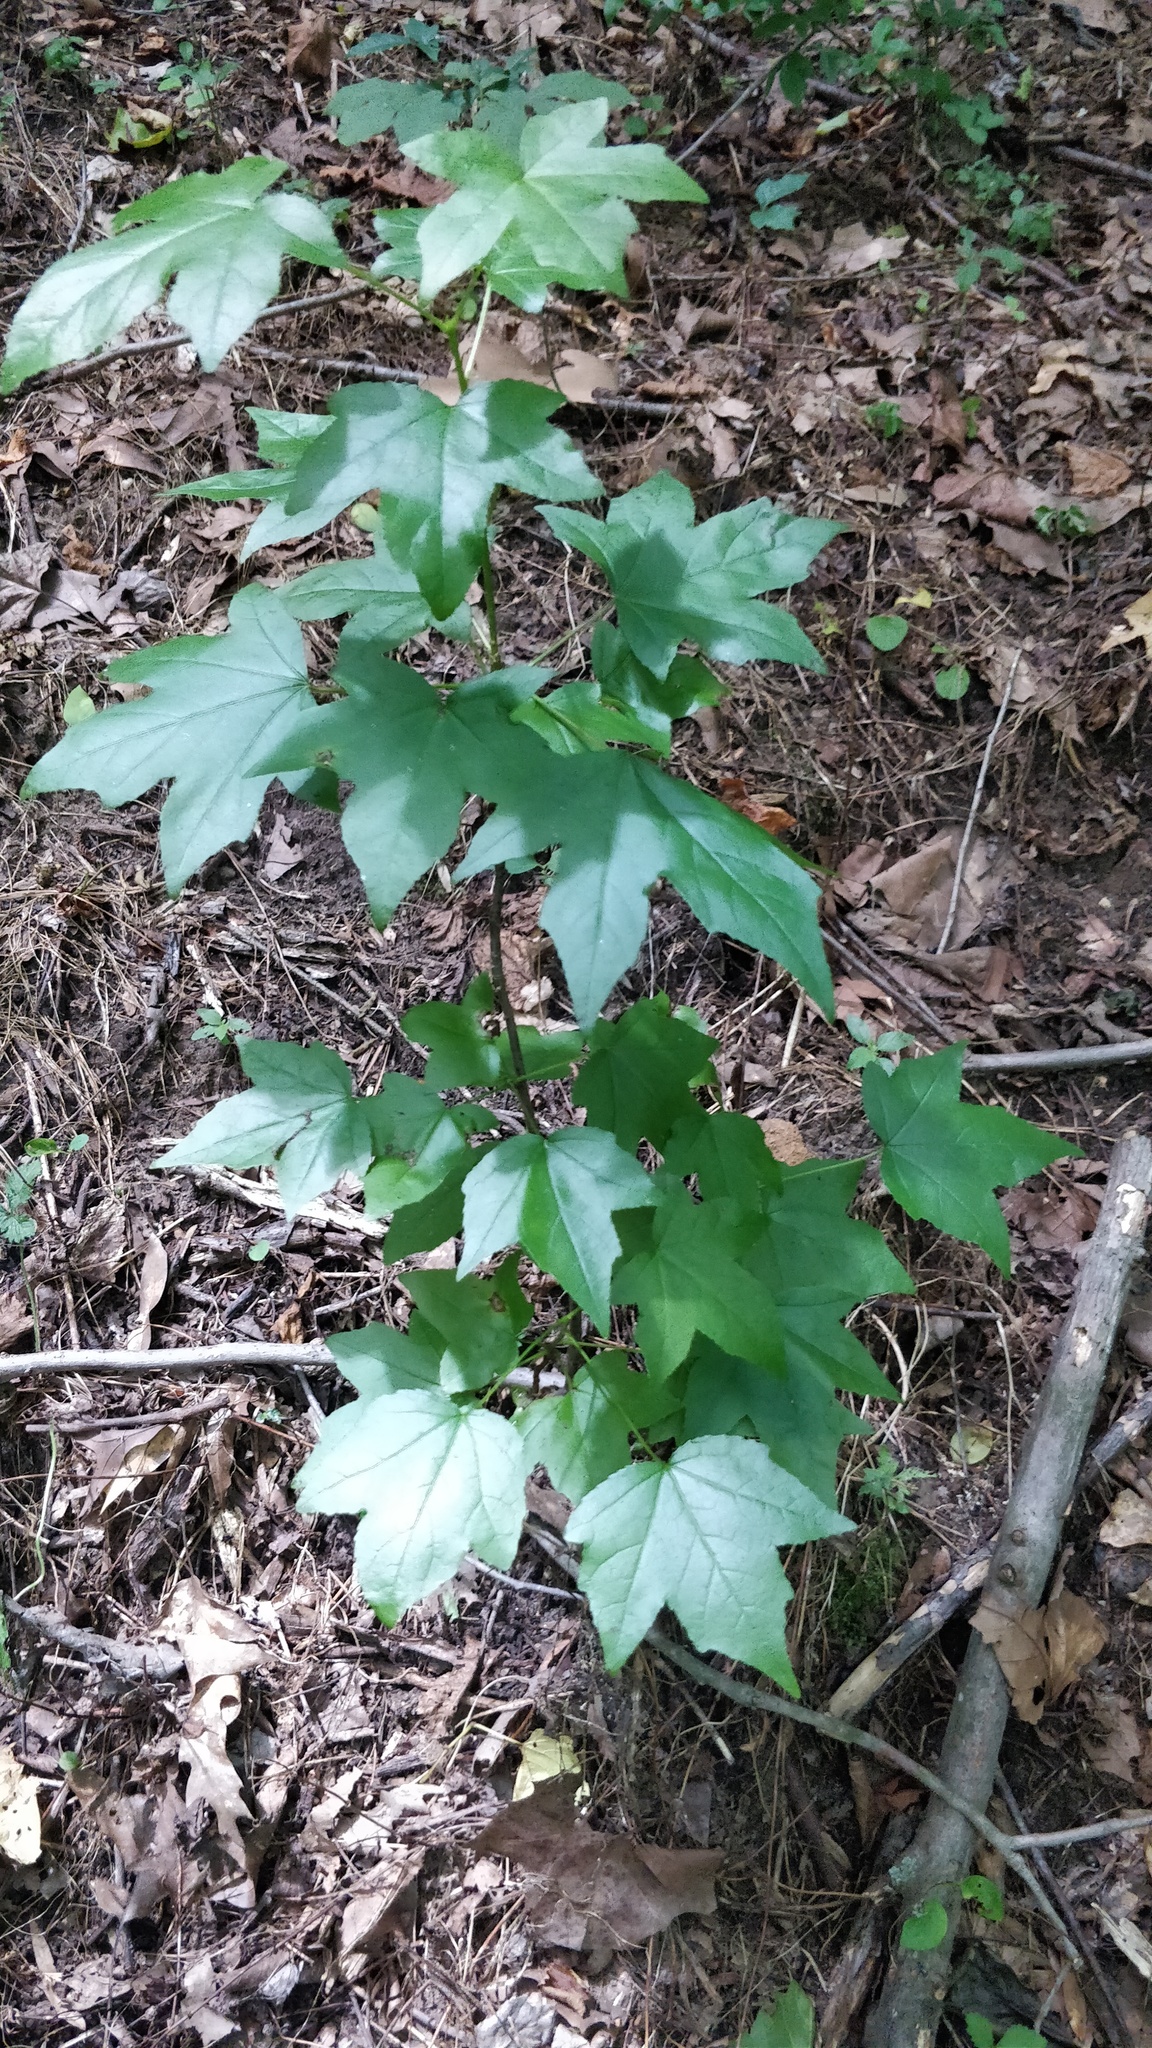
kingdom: Plantae
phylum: Tracheophyta
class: Magnoliopsida
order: Saxifragales
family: Altingiaceae
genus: Liquidambar
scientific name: Liquidambar styraciflua
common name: Sweet gum
